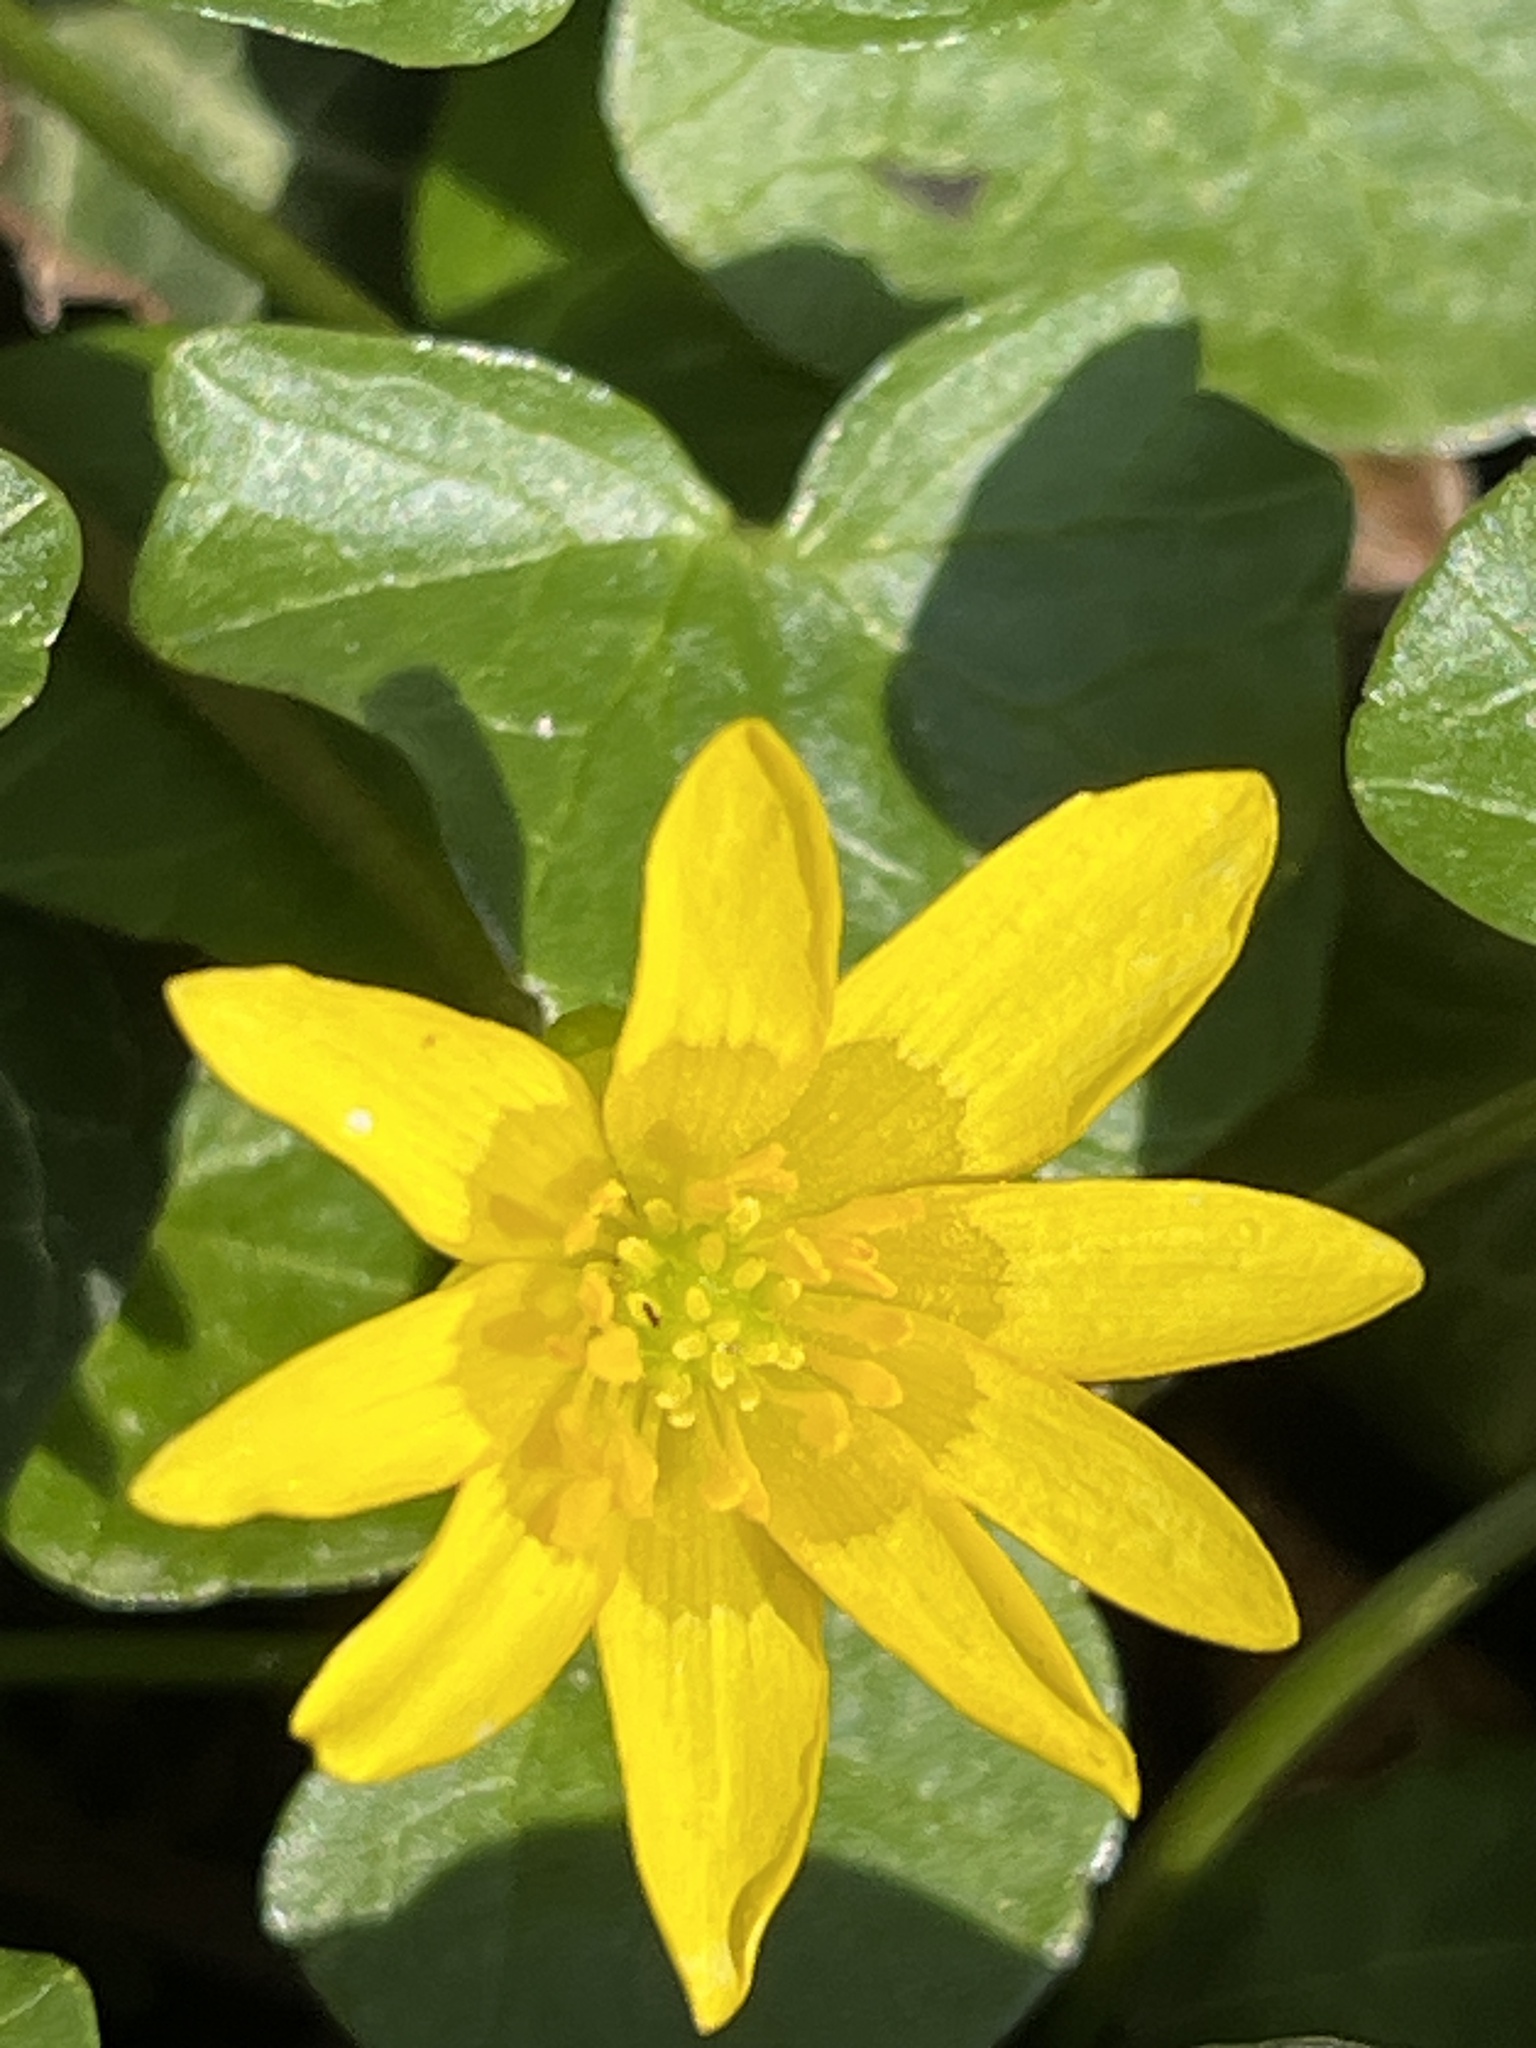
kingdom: Plantae
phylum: Tracheophyta
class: Magnoliopsida
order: Ranunculales
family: Ranunculaceae
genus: Ficaria
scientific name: Ficaria verna
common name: Lesser celandine
